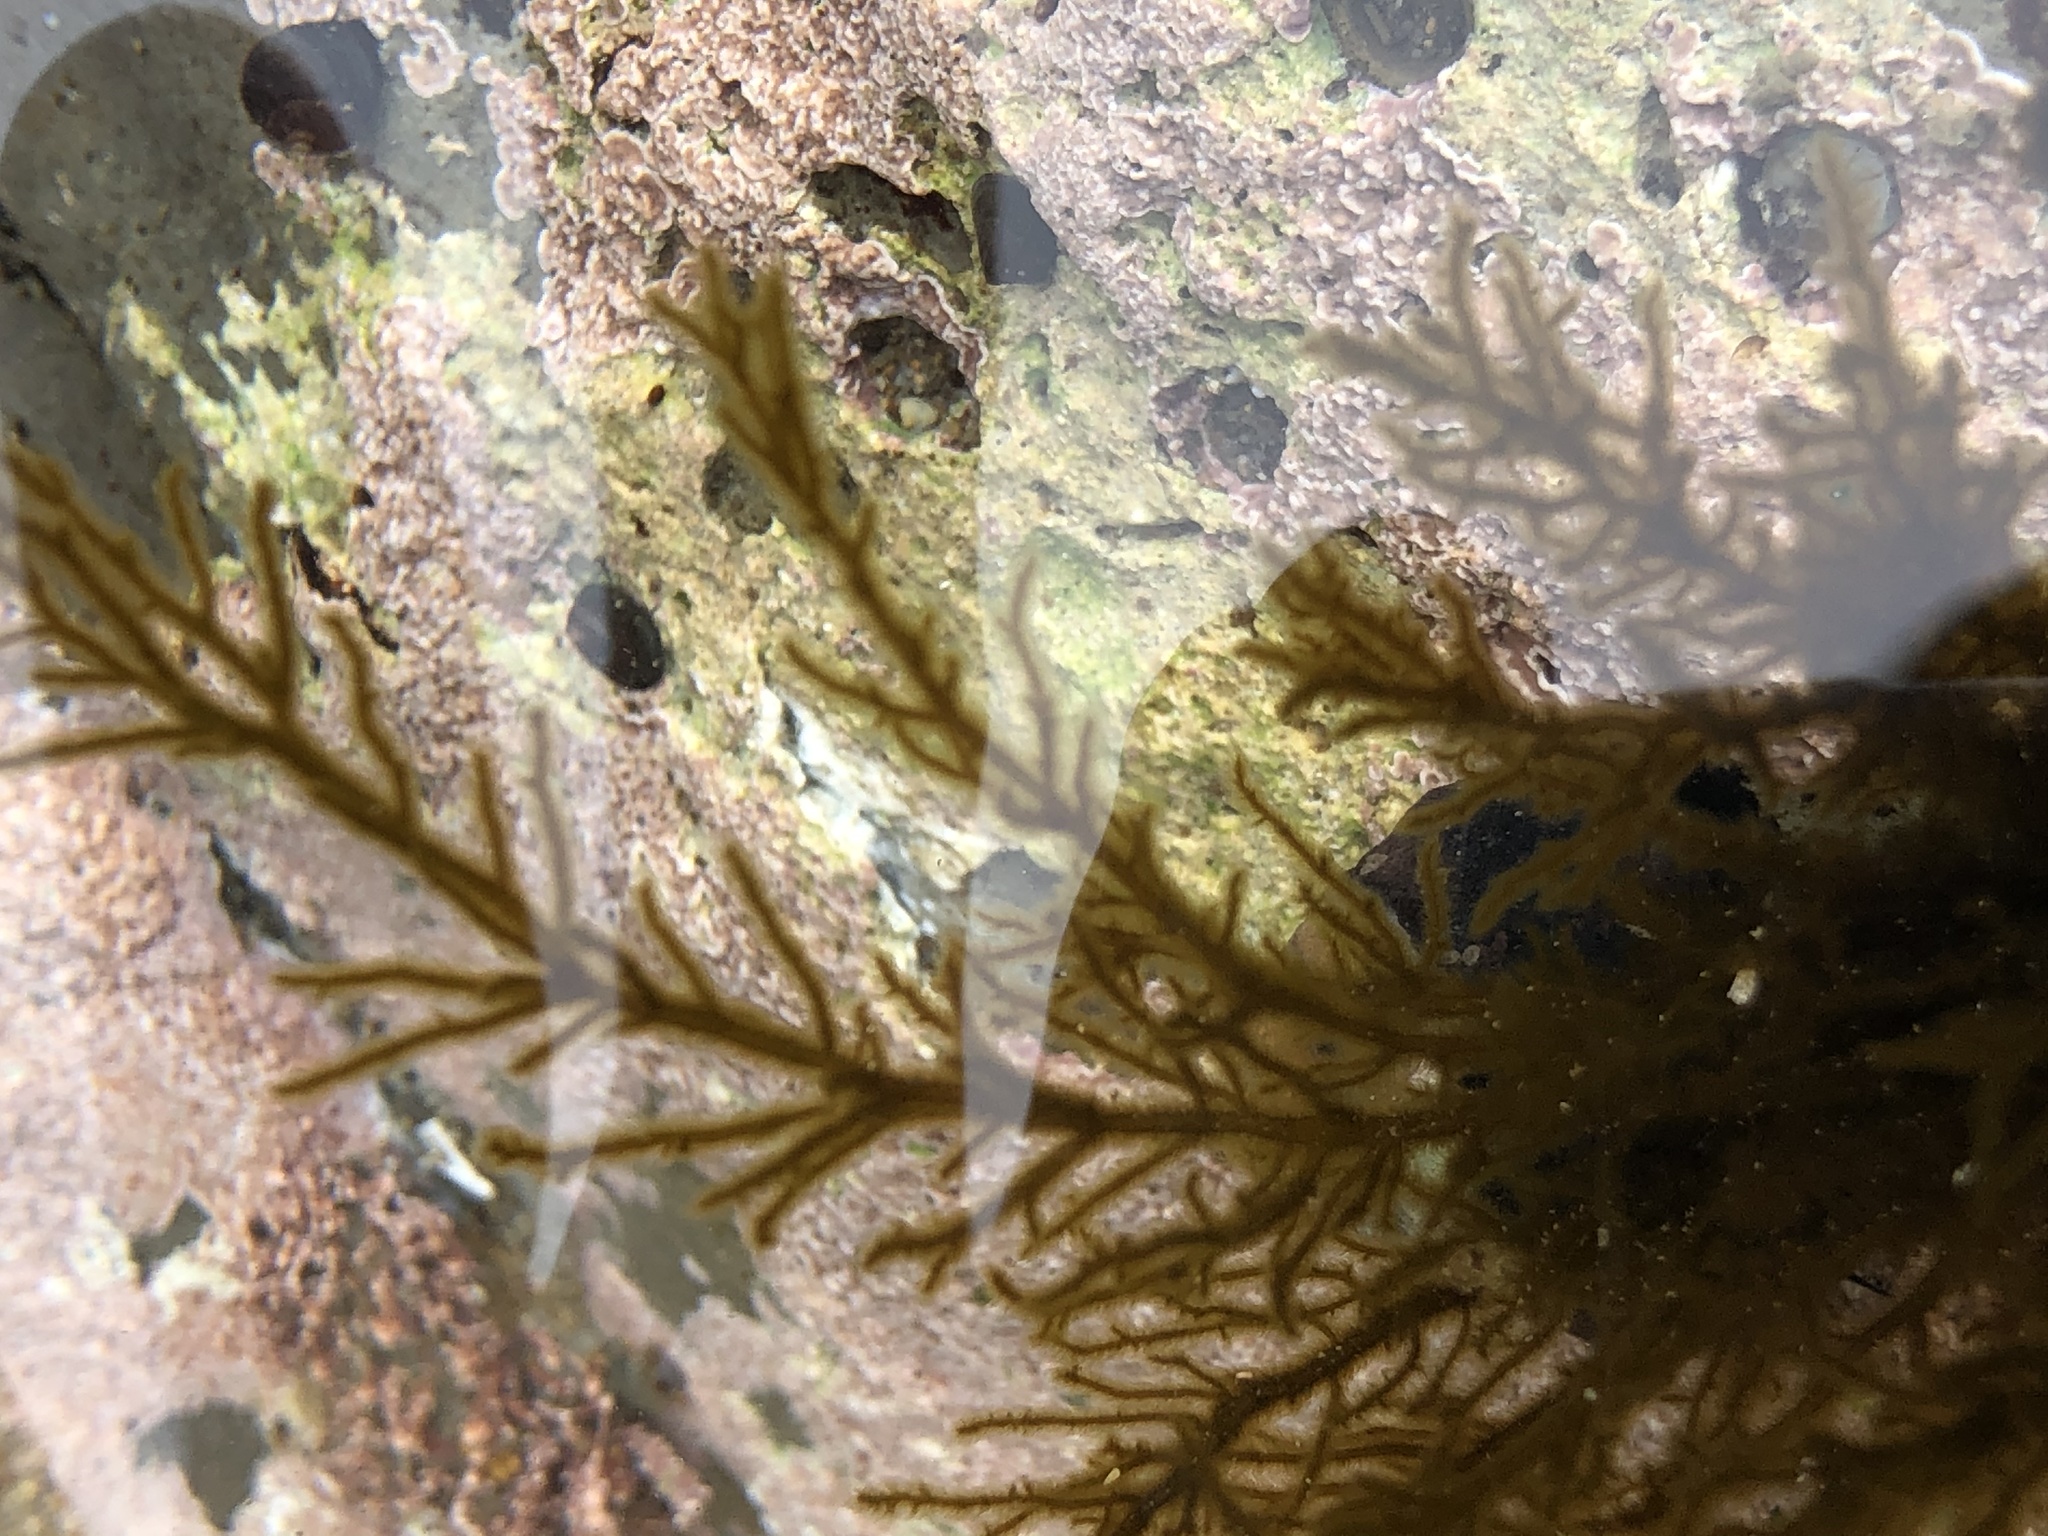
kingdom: Chromista
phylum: Ochrophyta
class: Phaeophyceae
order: Ectocarpales
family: Chordariaceae
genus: Haplogloia
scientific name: Haplogloia andersonii
